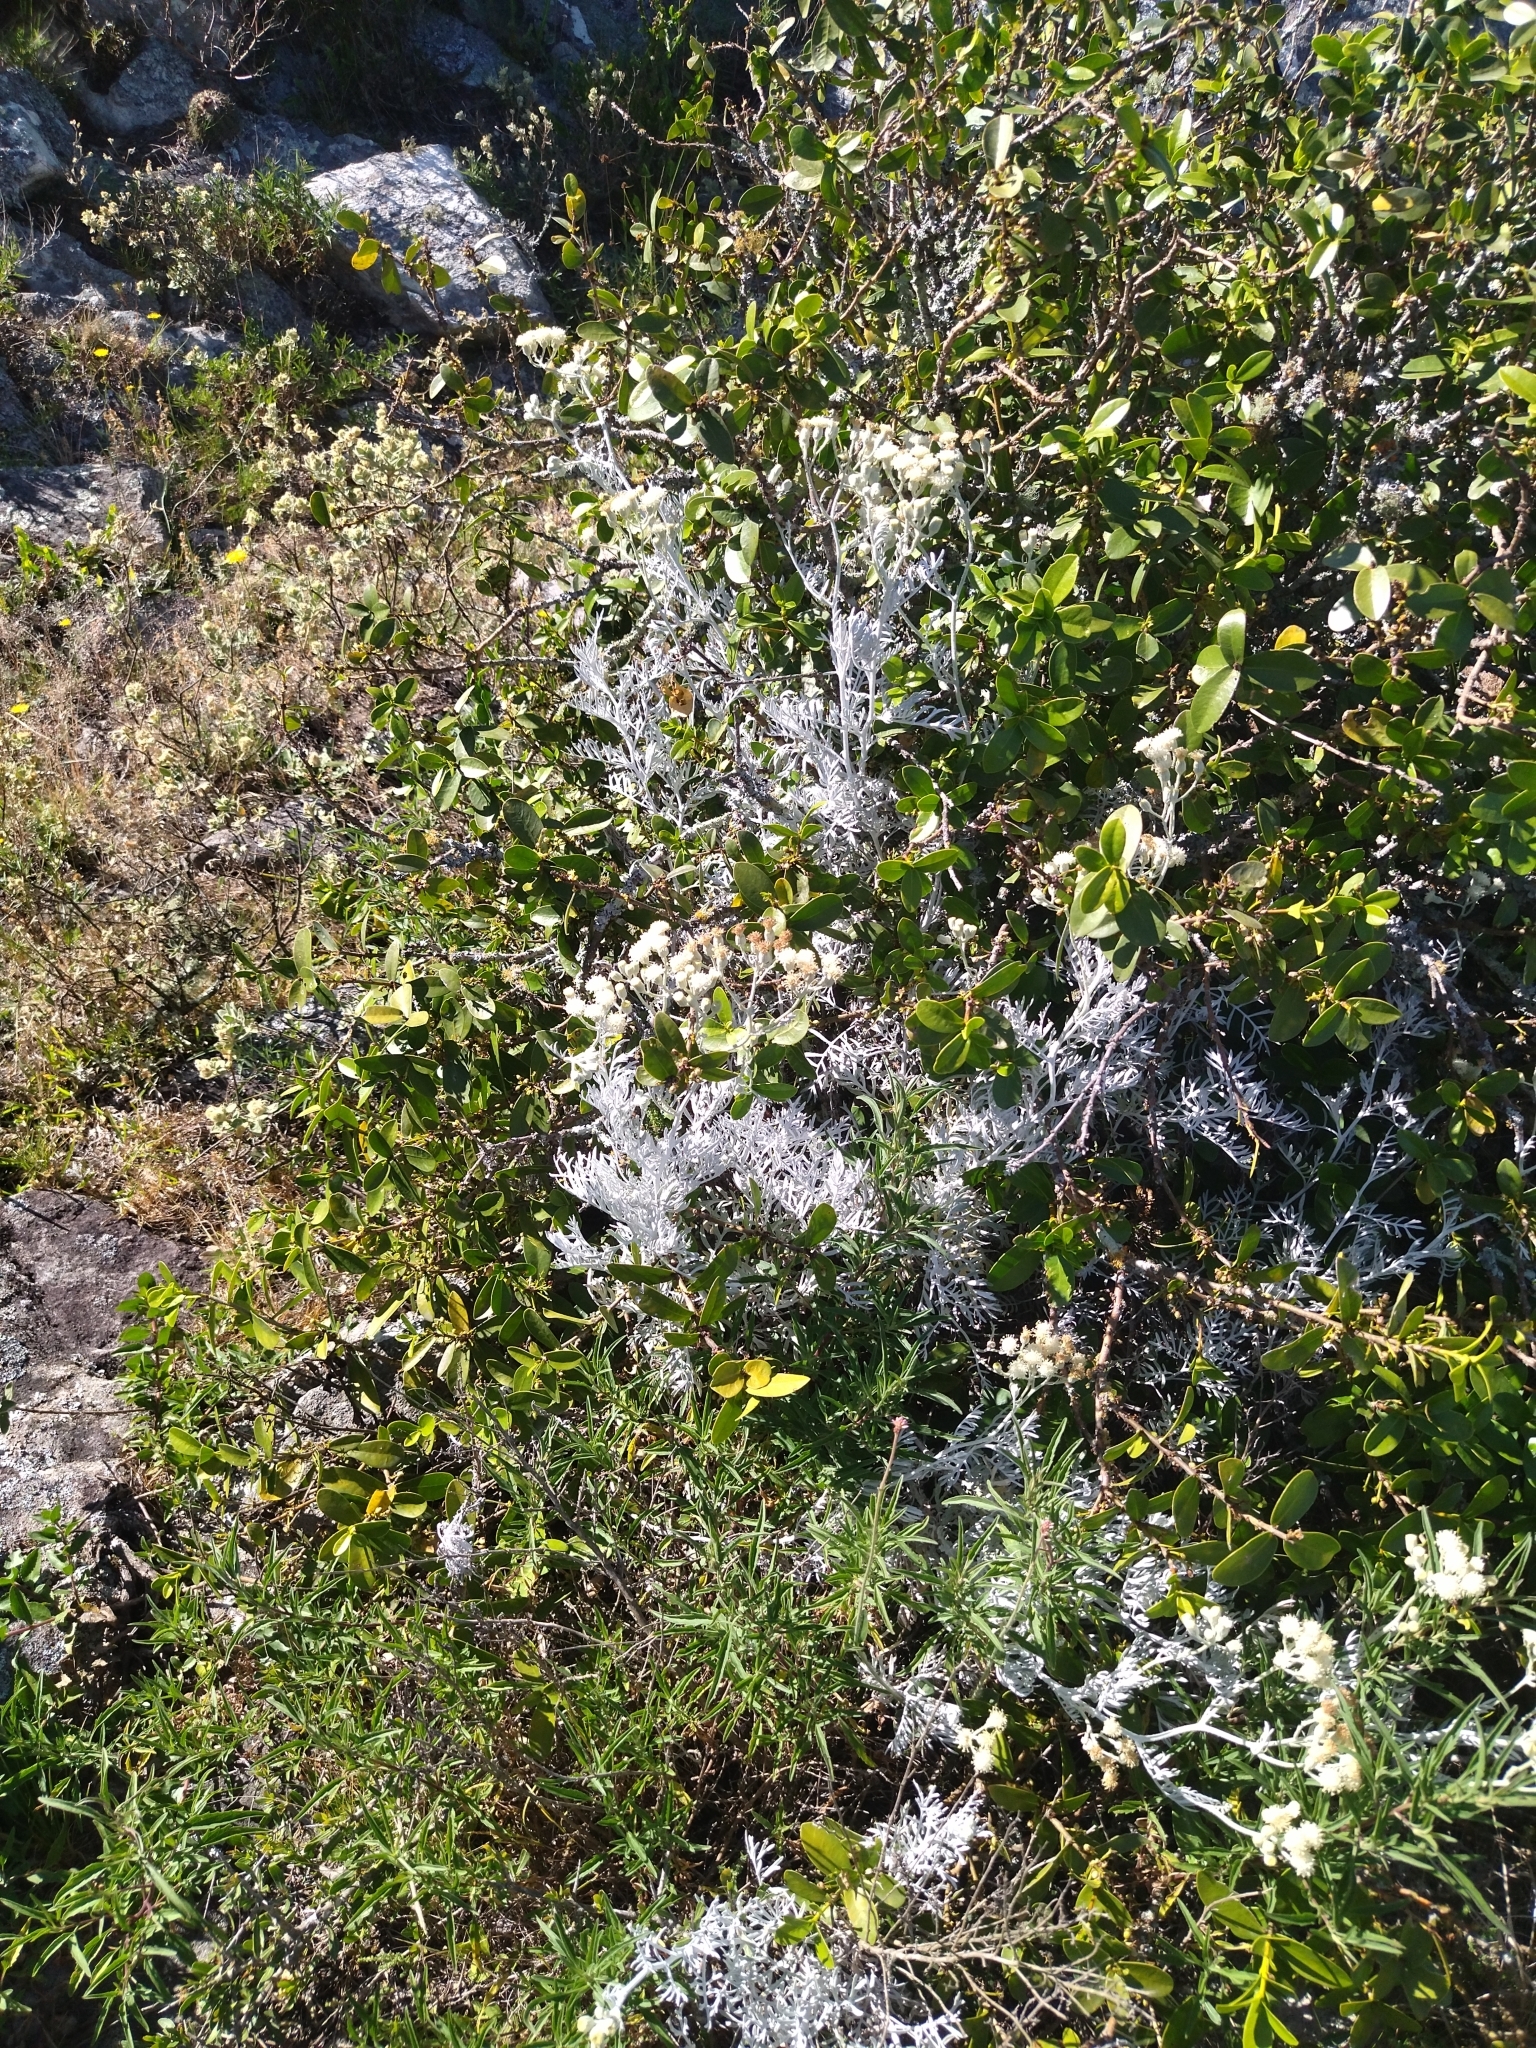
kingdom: Plantae
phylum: Tracheophyta
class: Magnoliopsida
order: Asterales
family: Asteraceae
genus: Senecio
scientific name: Senecio vira-vira
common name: Dusty-miller
